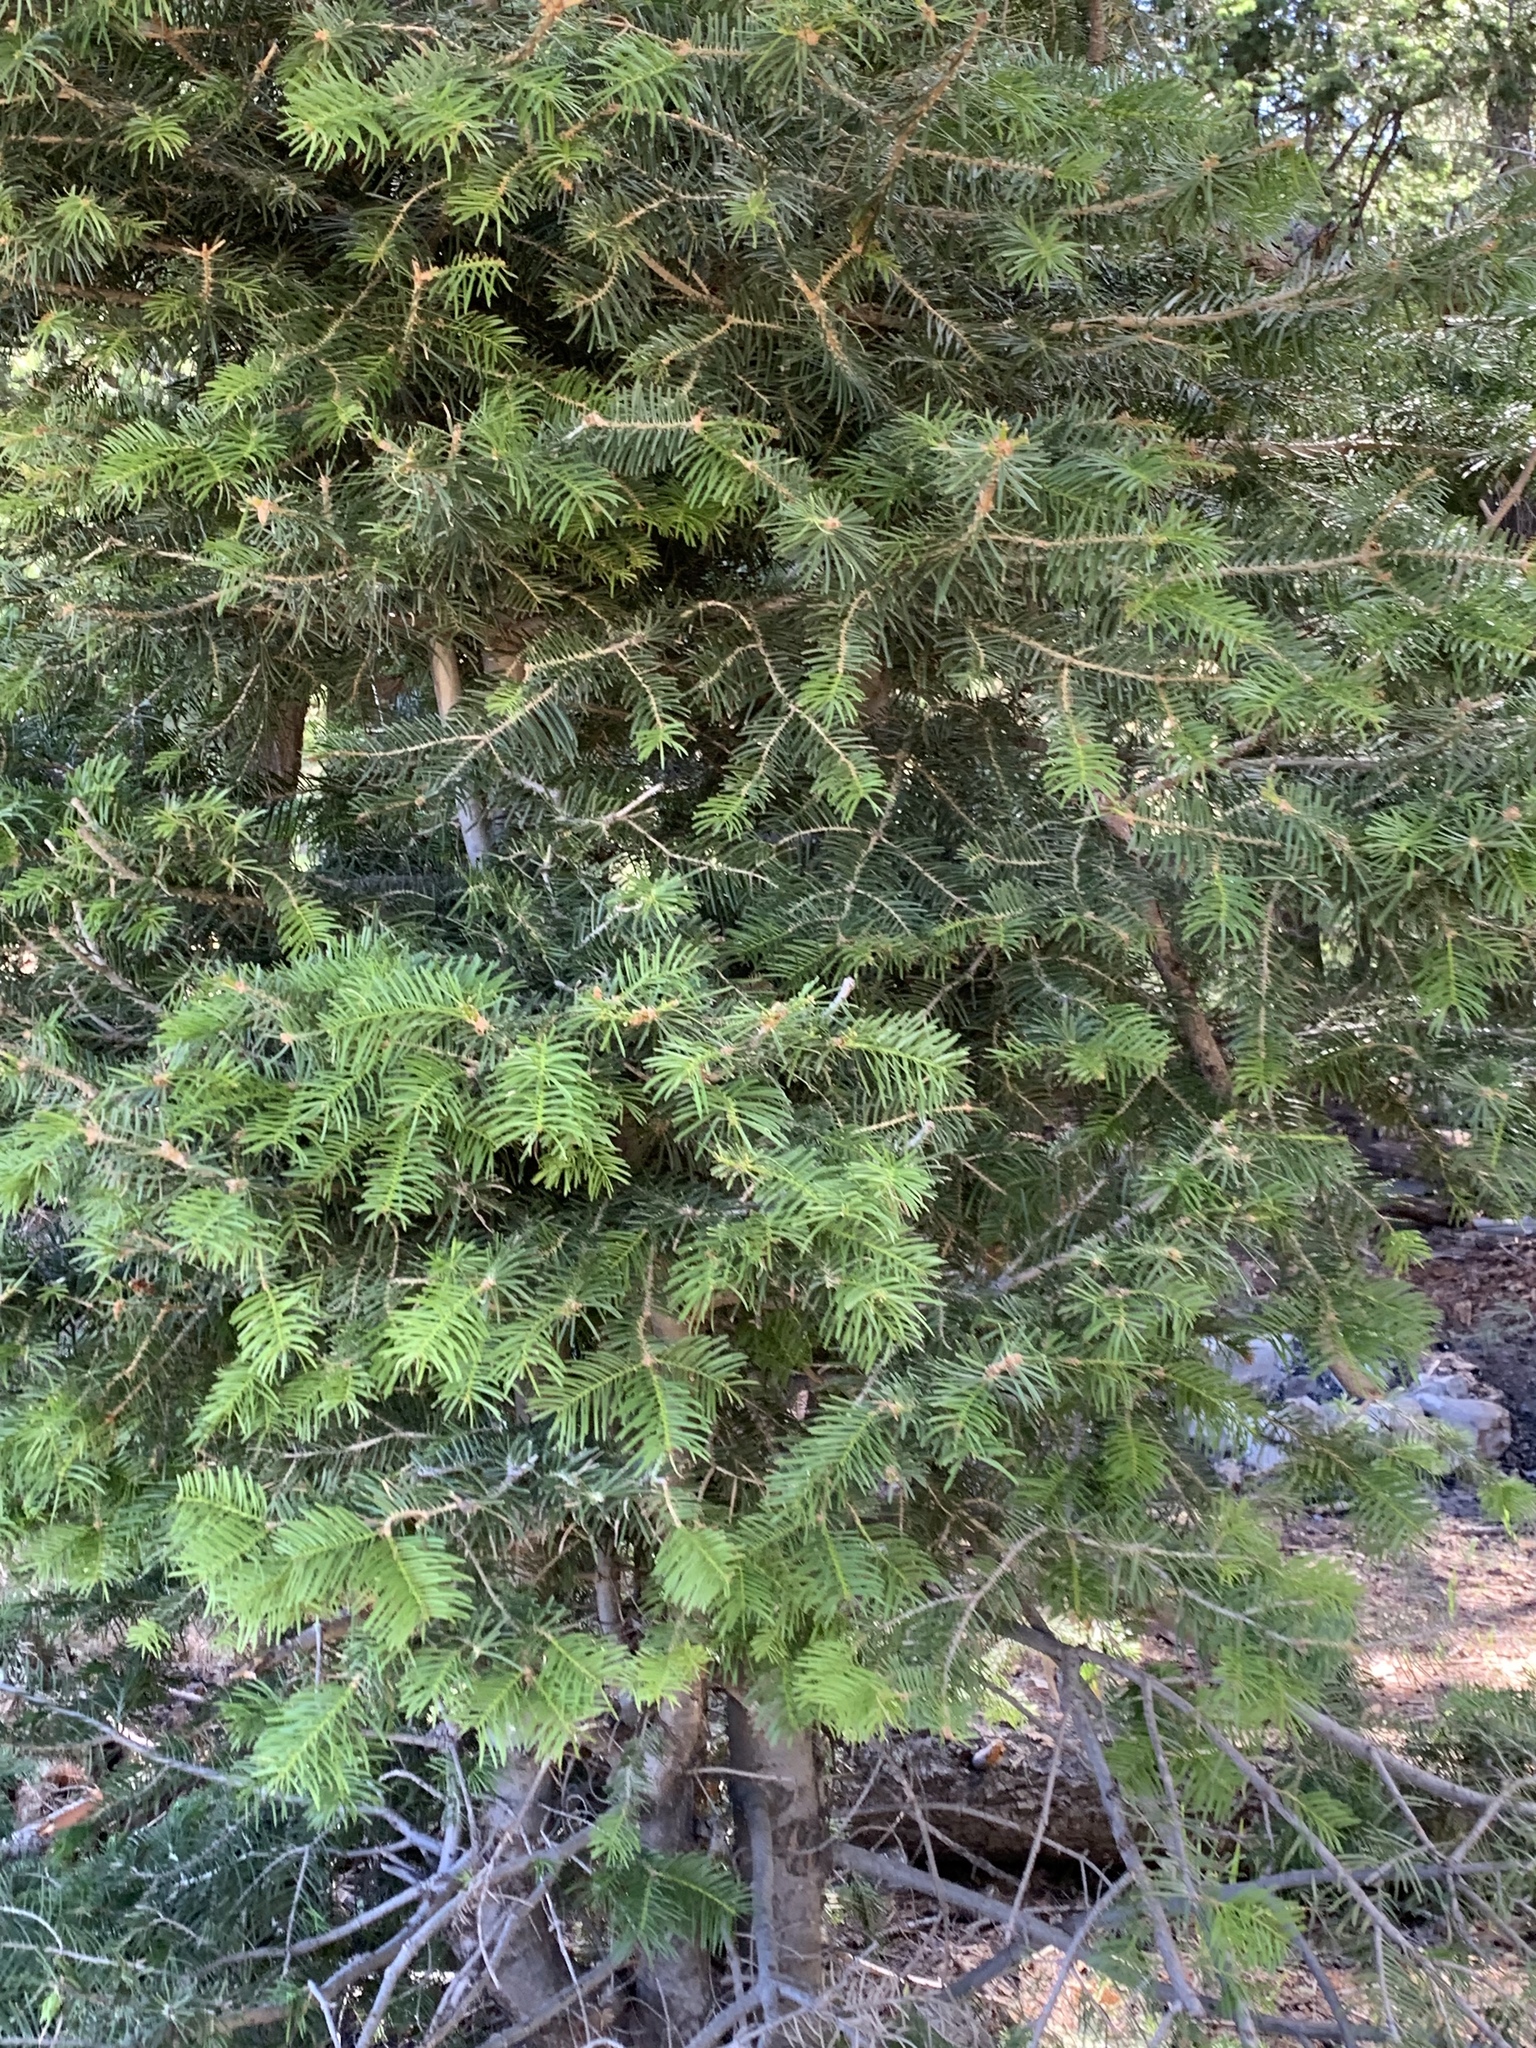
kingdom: Plantae
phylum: Tracheophyta
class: Pinopsida
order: Pinales
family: Pinaceae
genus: Abies
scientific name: Abies concolor
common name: Colorado fir
